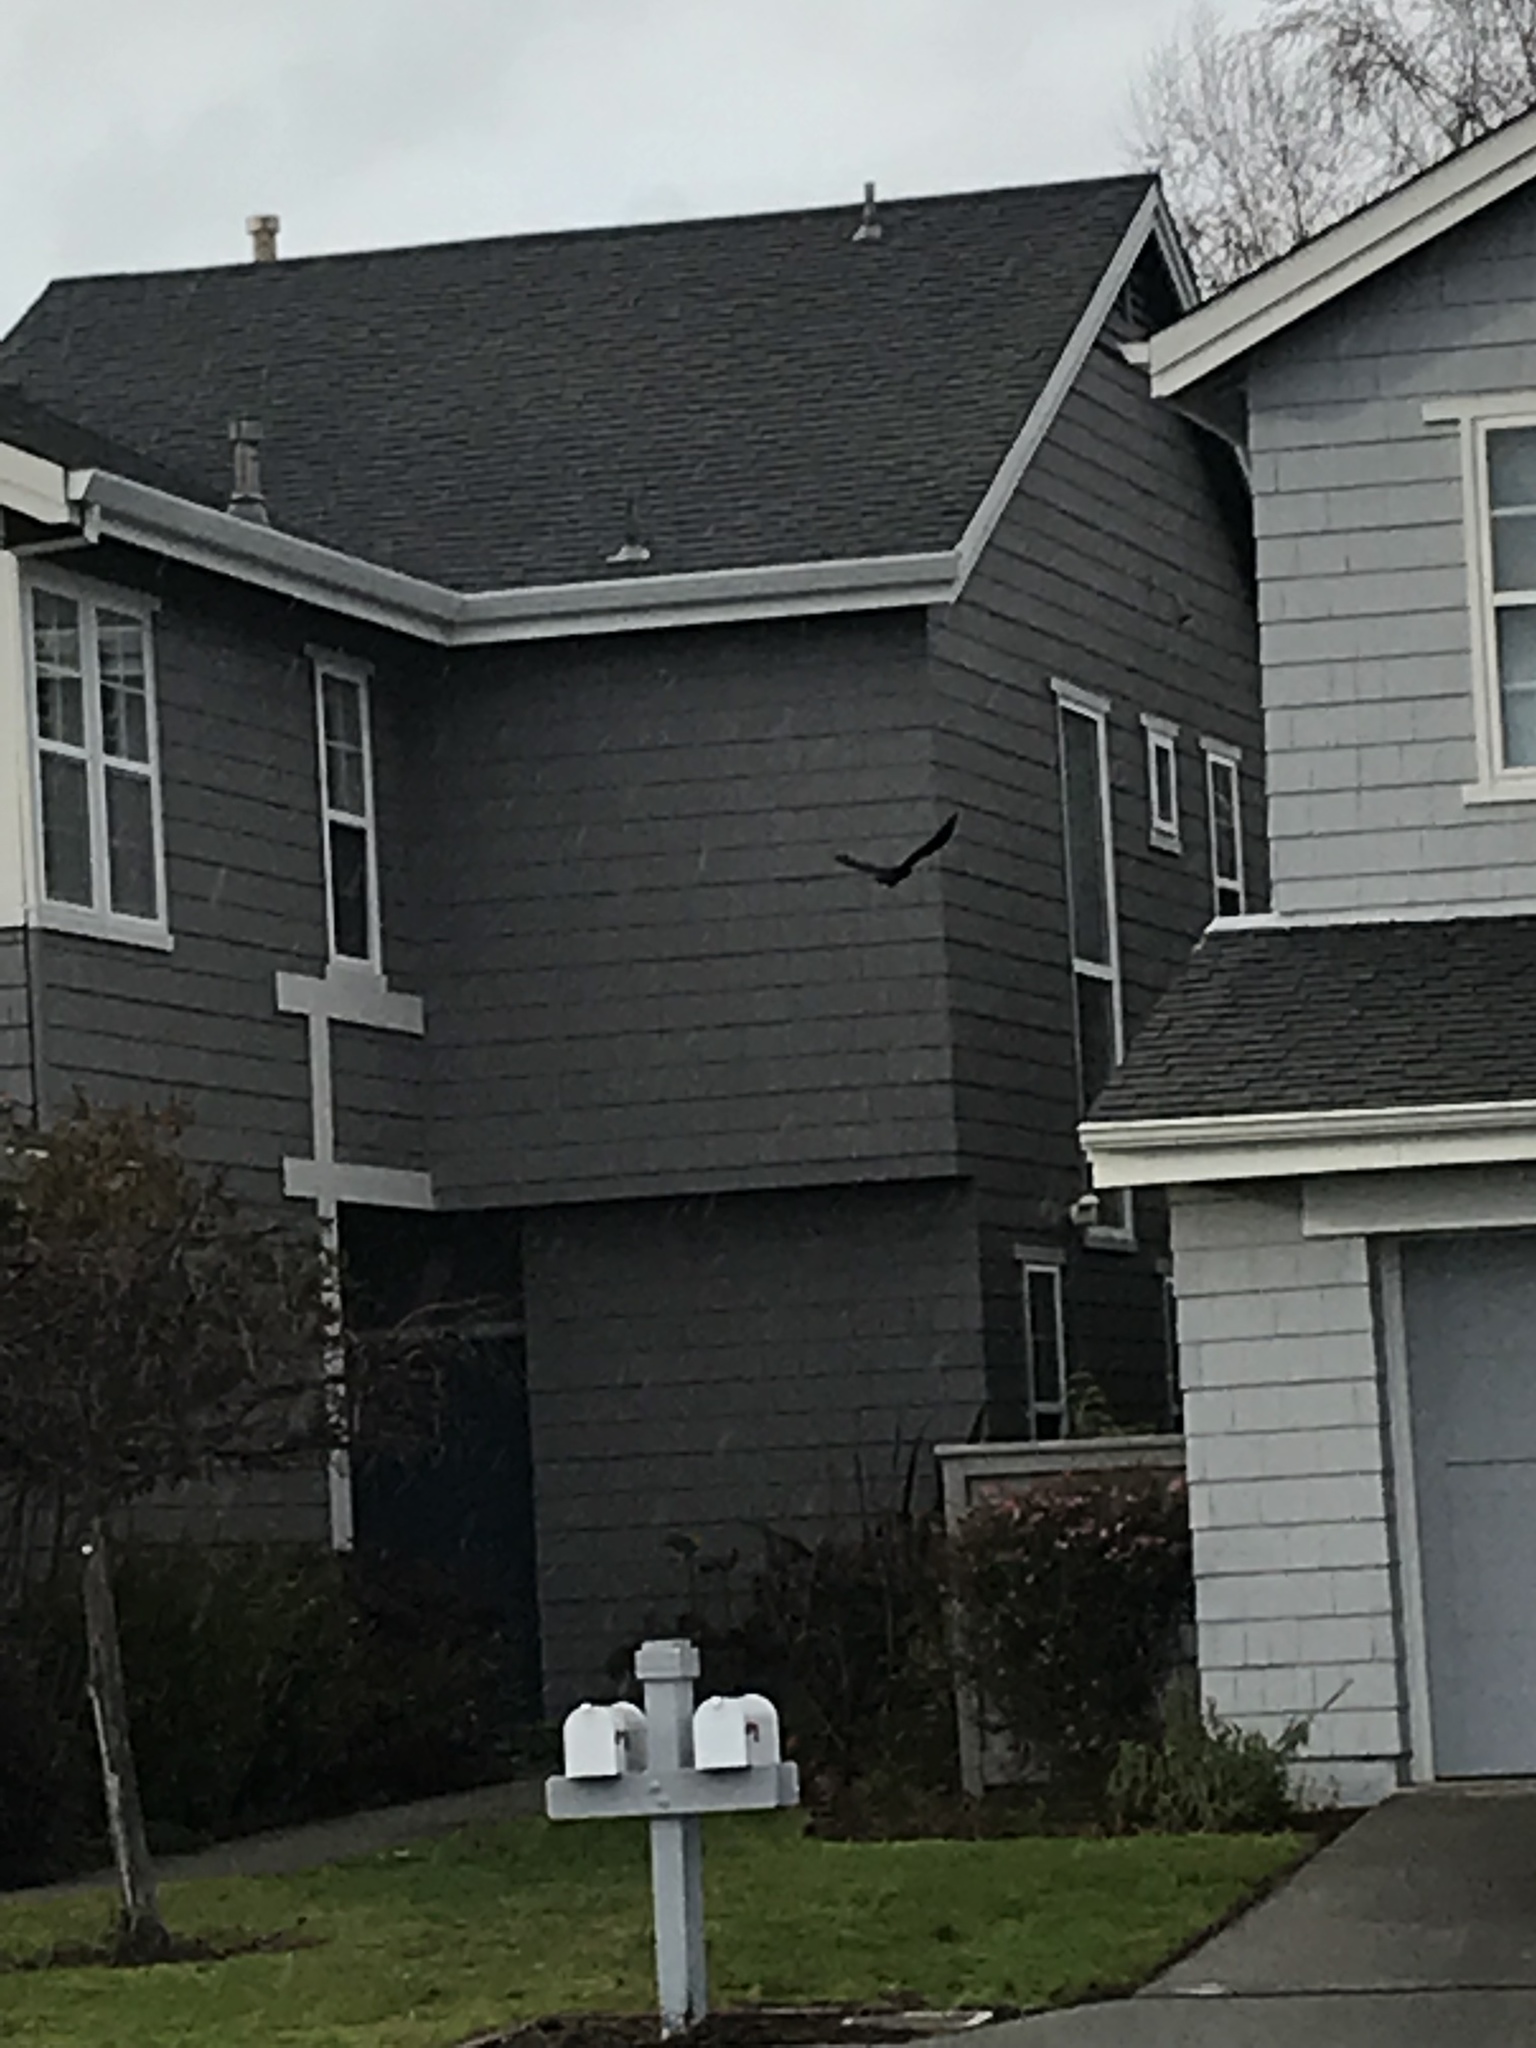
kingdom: Animalia
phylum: Chordata
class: Aves
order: Passeriformes
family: Corvidae
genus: Corvus
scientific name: Corvus brachyrhynchos
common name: American crow
